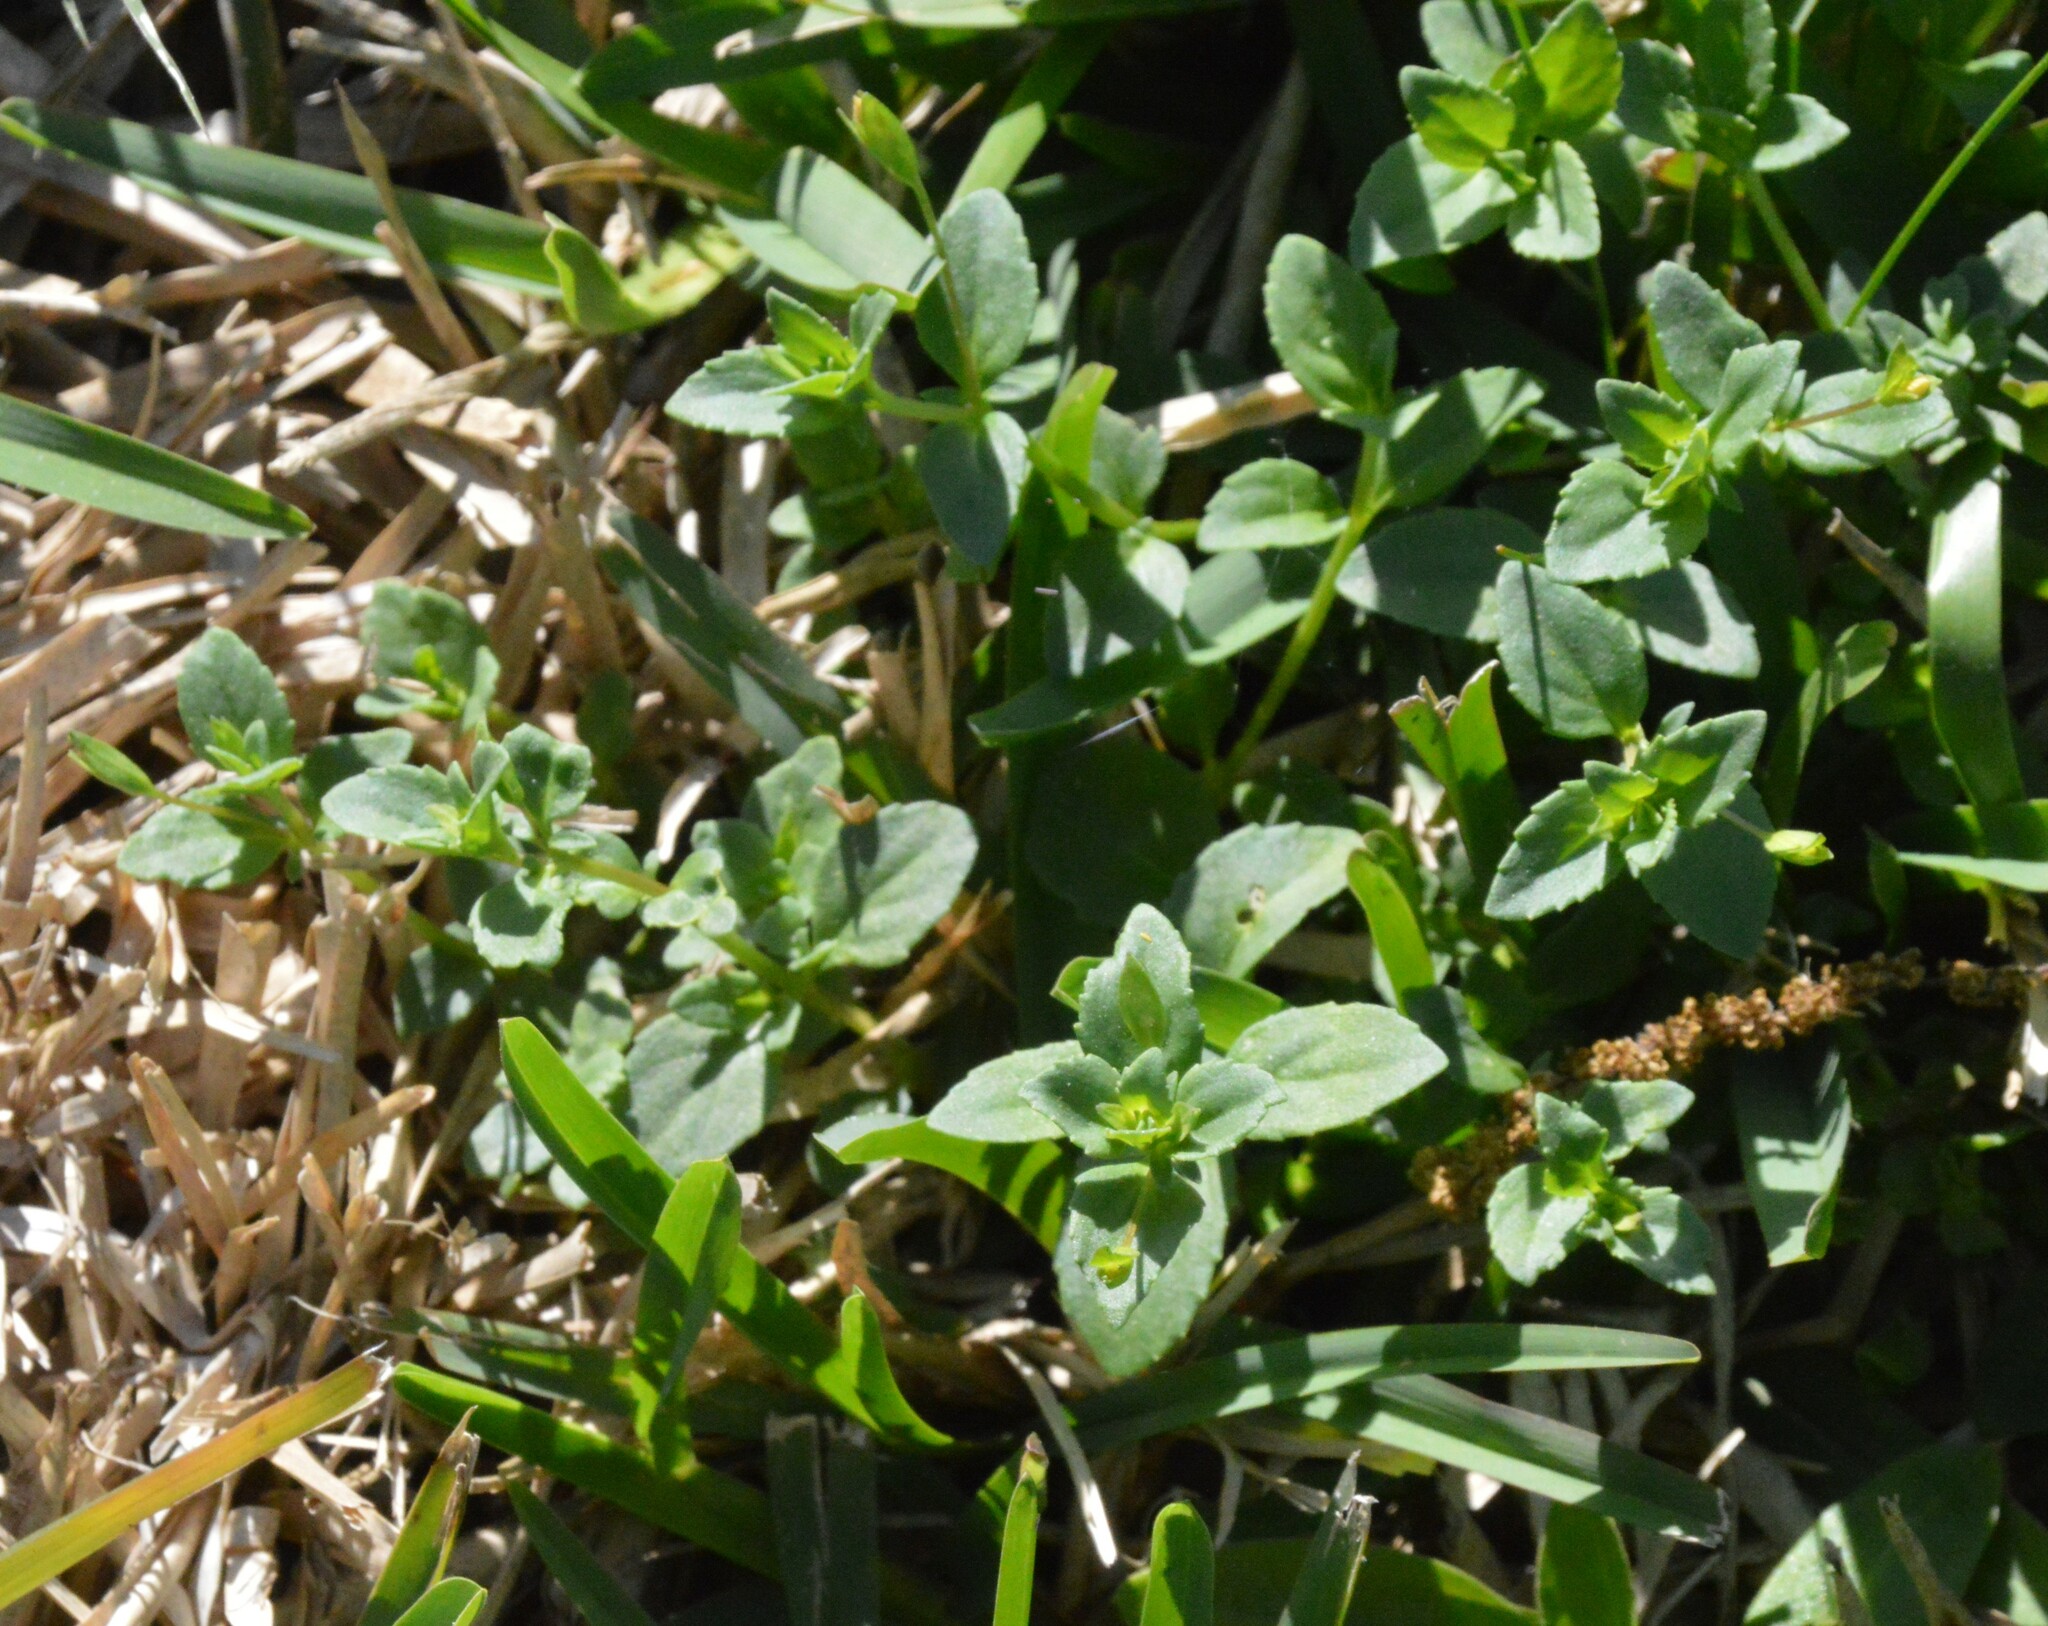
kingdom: Plantae
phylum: Tracheophyta
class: Magnoliopsida
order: Lamiales
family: Plantaginaceae
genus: Mecardonia
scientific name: Mecardonia procumbens
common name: Baby jump-up
